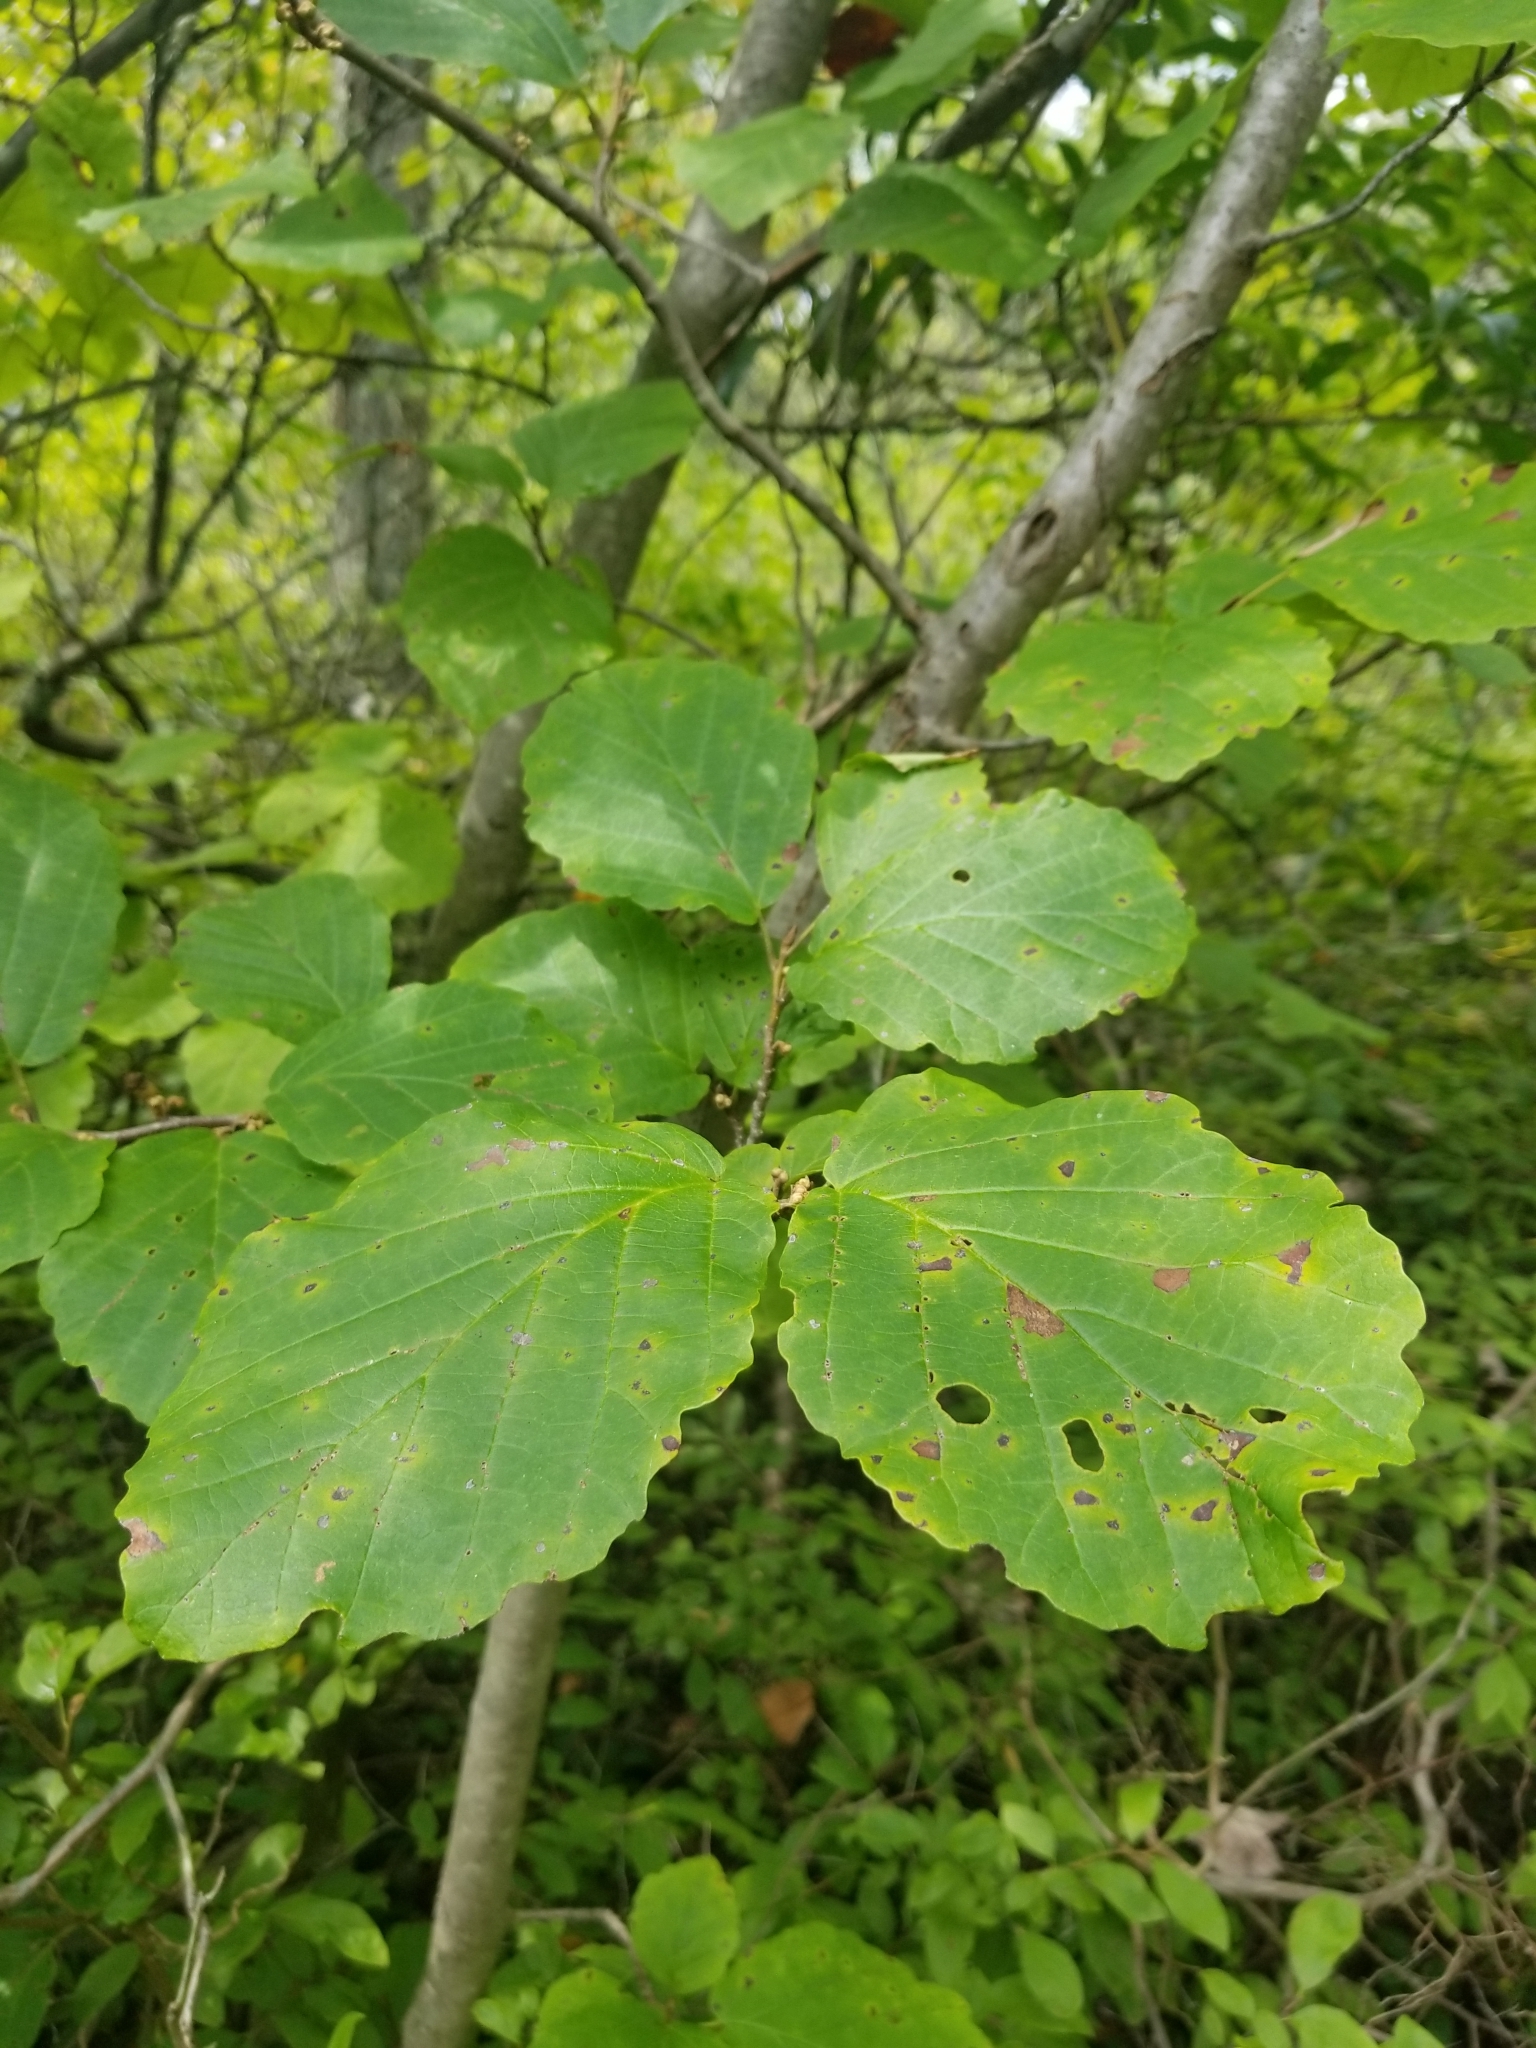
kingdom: Plantae
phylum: Tracheophyta
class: Magnoliopsida
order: Saxifragales
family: Hamamelidaceae
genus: Hamamelis
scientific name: Hamamelis virginiana
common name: Witch-hazel
